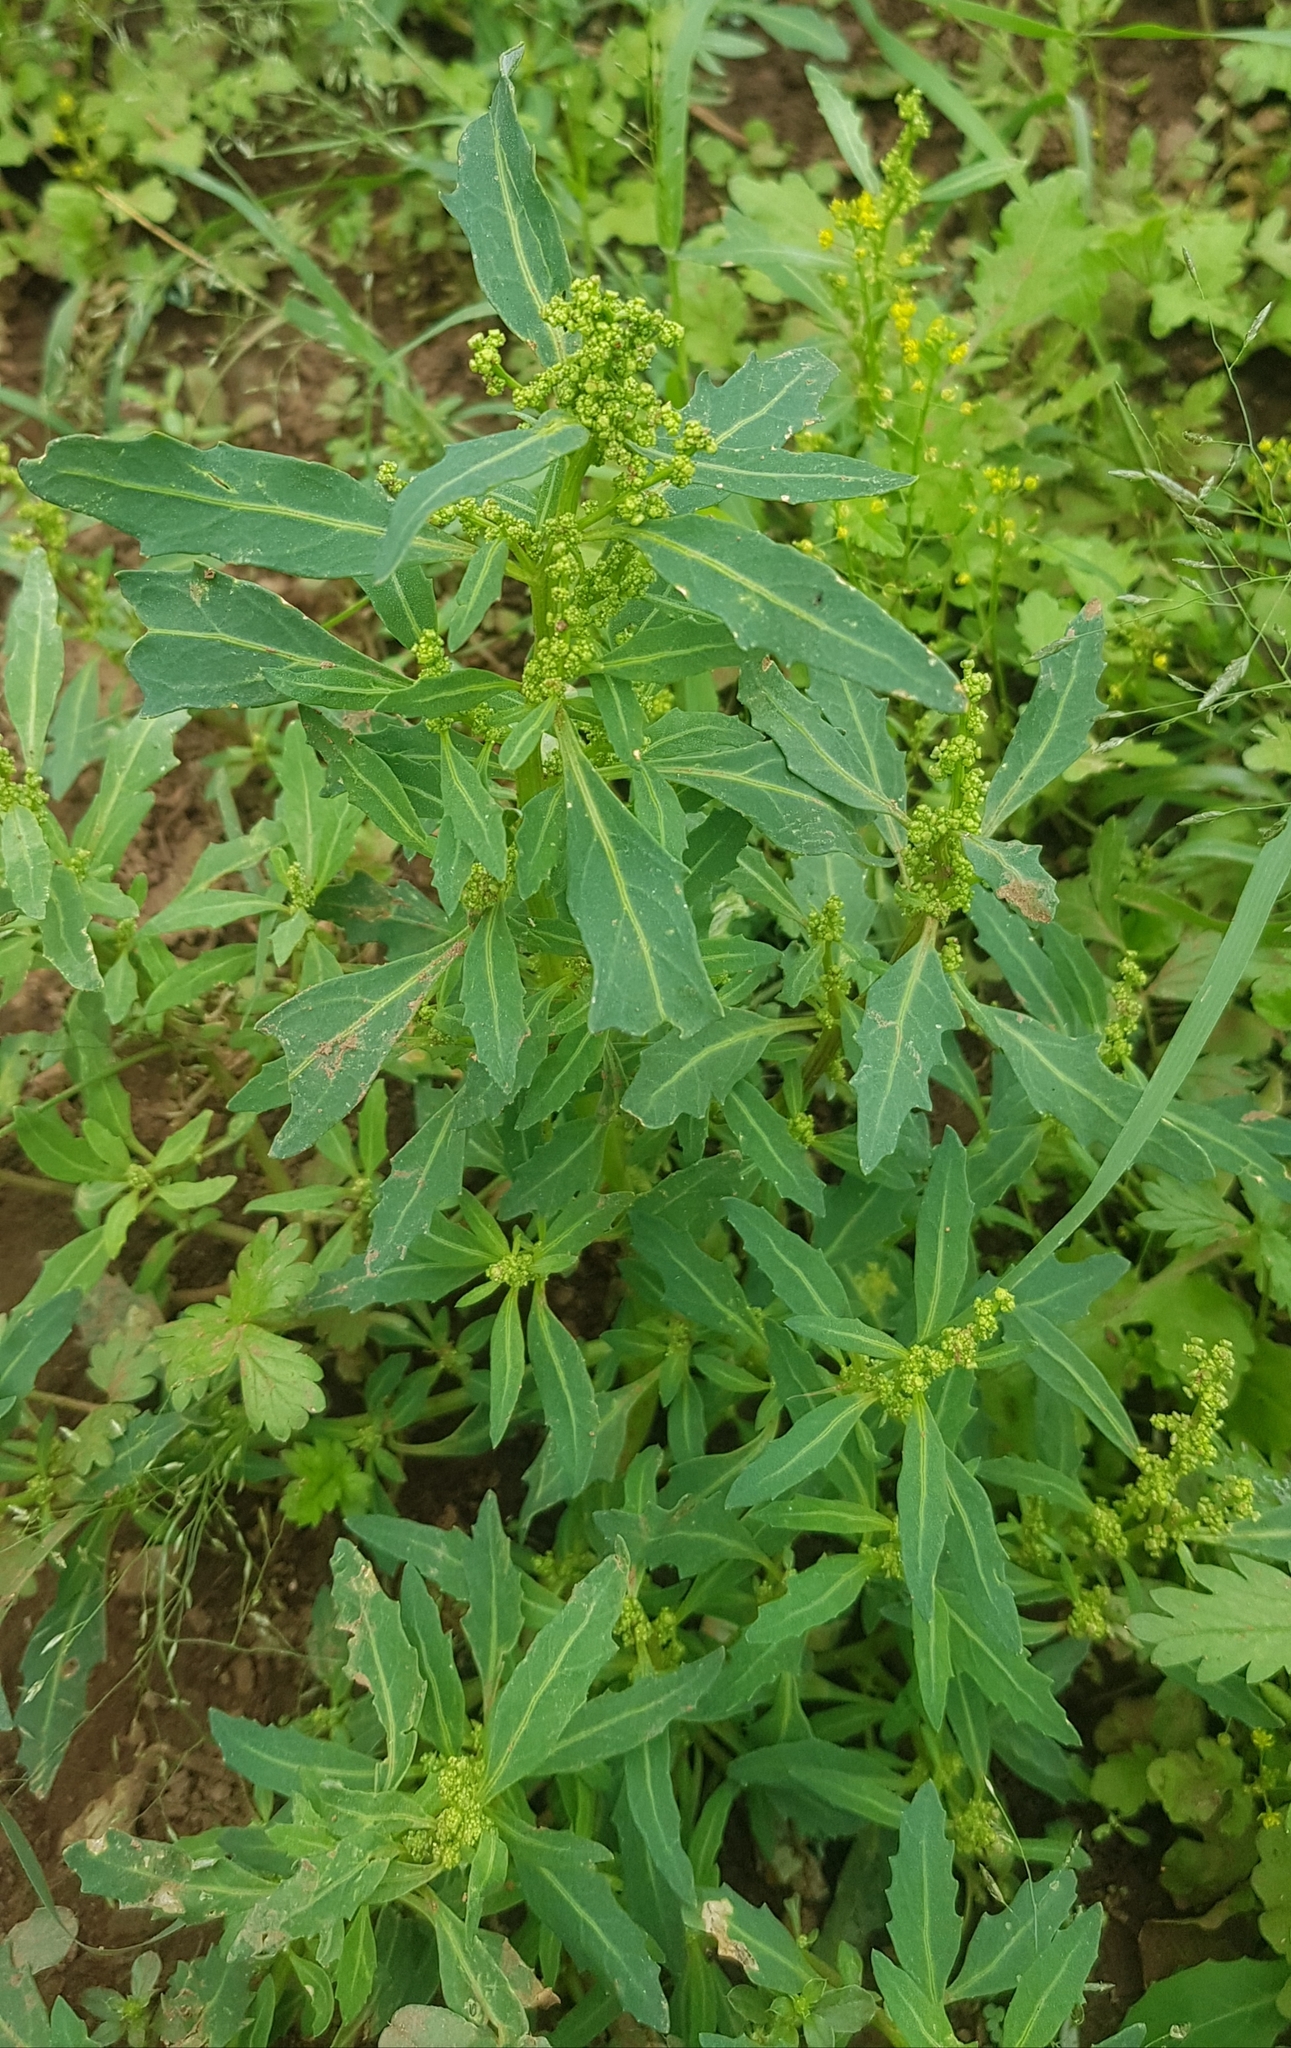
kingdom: Plantae
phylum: Tracheophyta
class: Magnoliopsida
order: Caryophyllales
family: Amaranthaceae
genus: Oxybasis
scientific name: Oxybasis glauca
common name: Glaucous goosefoot
